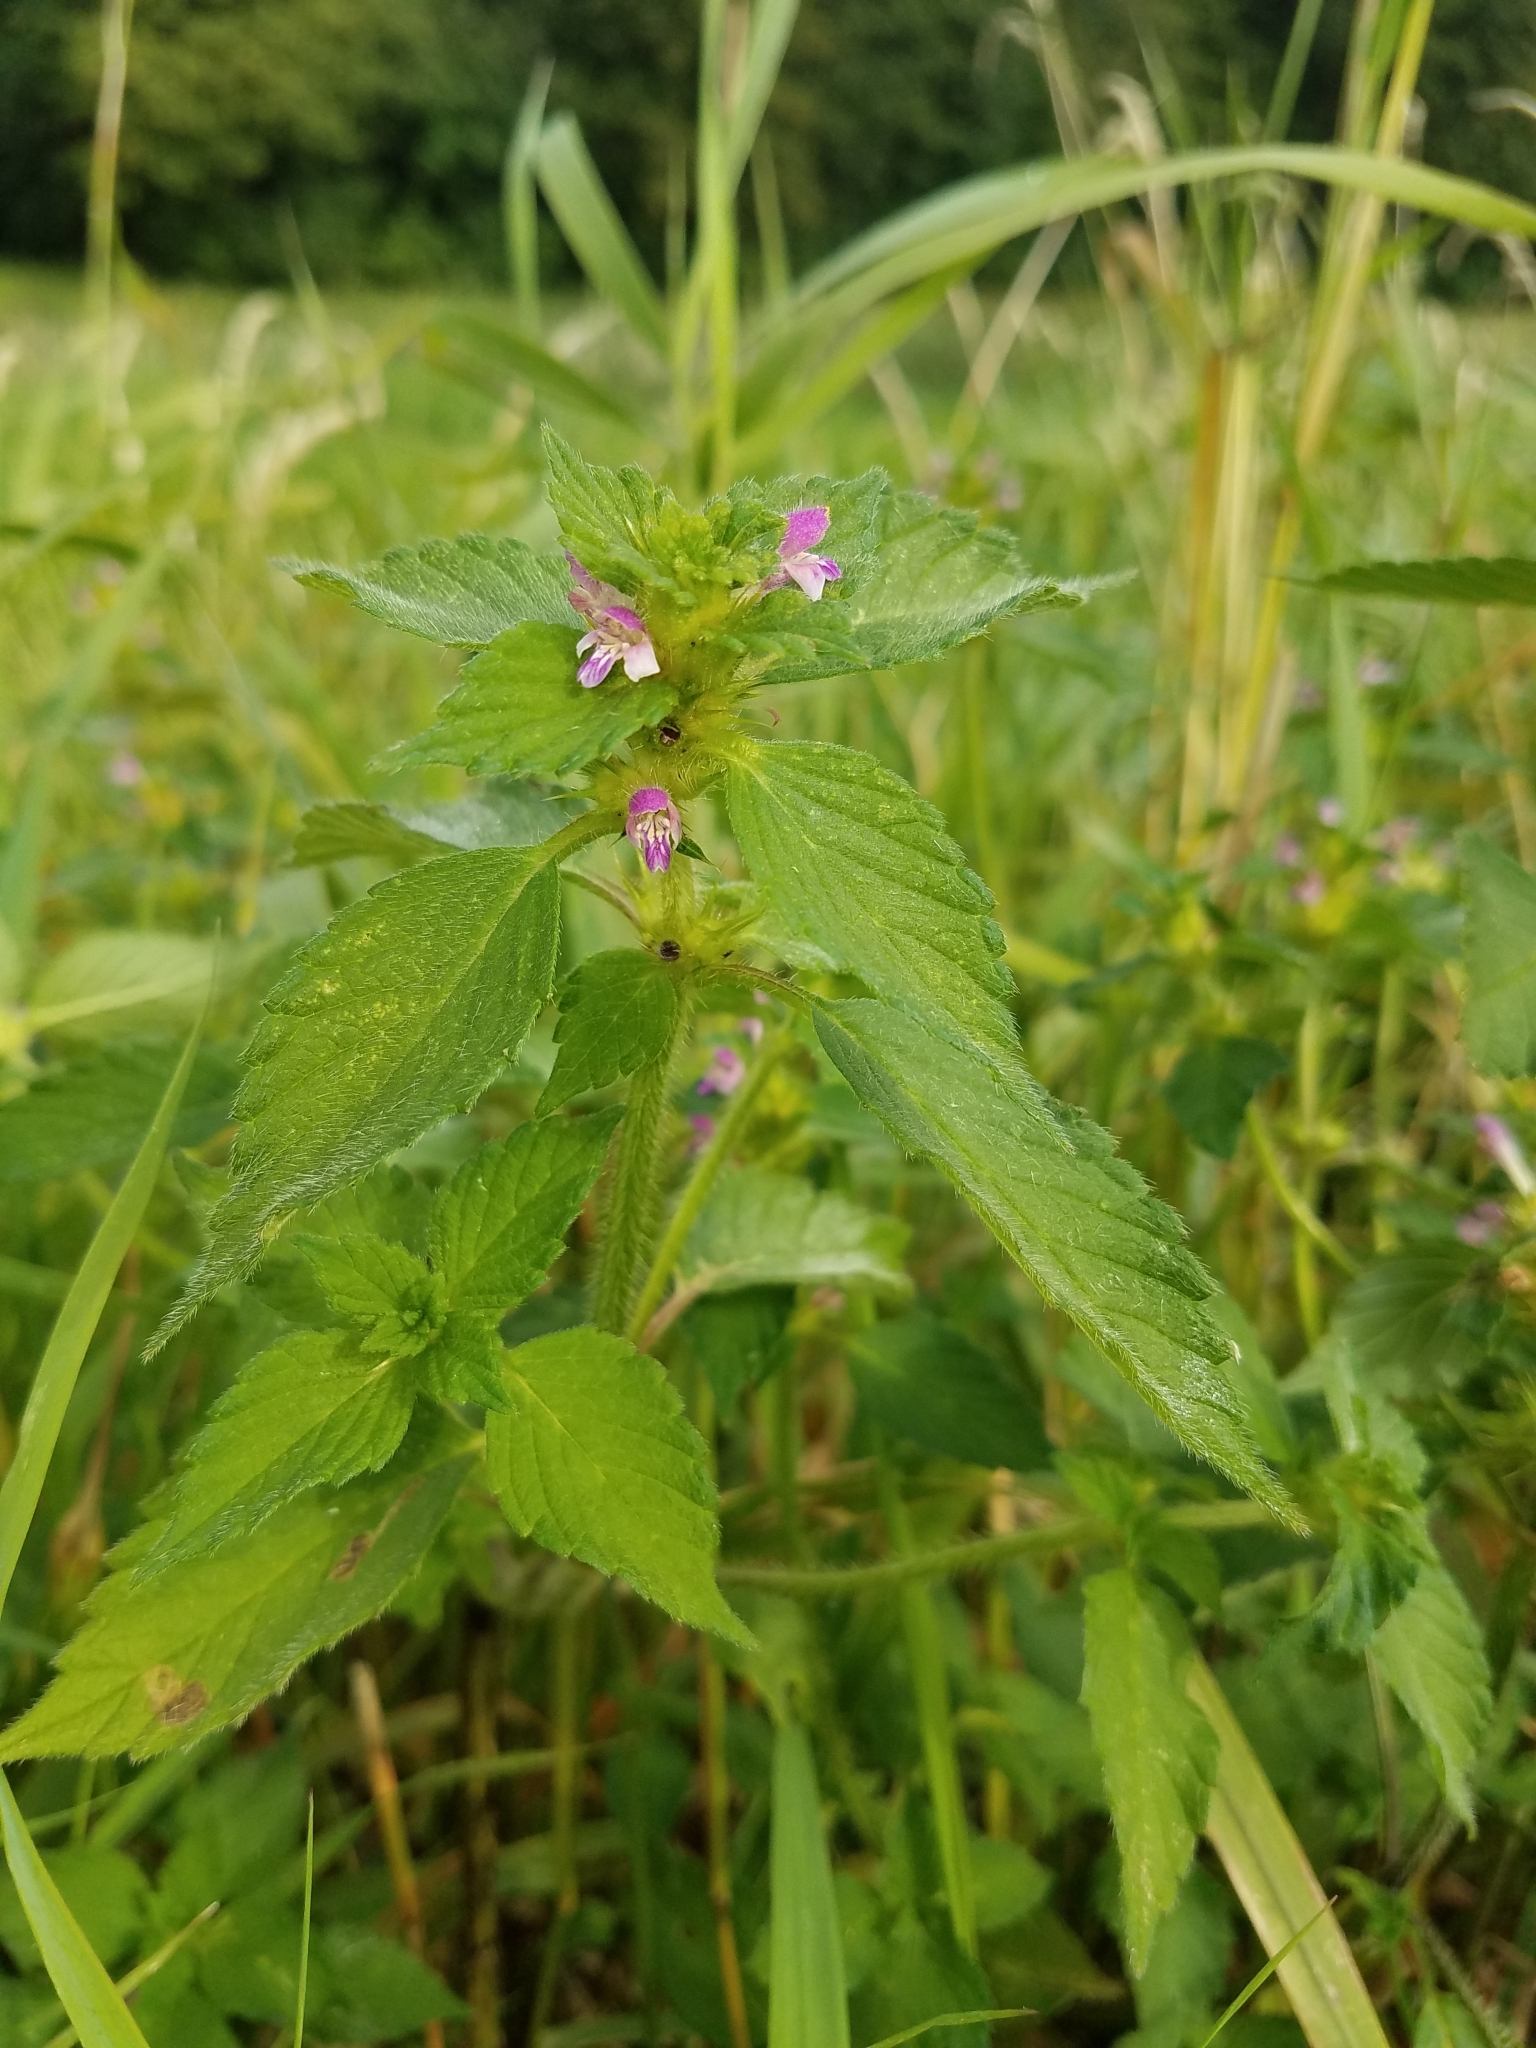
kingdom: Plantae
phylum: Tracheophyta
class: Magnoliopsida
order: Lamiales
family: Lamiaceae
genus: Galeopsis
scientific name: Galeopsis bifida
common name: Bifid hemp-nettle
